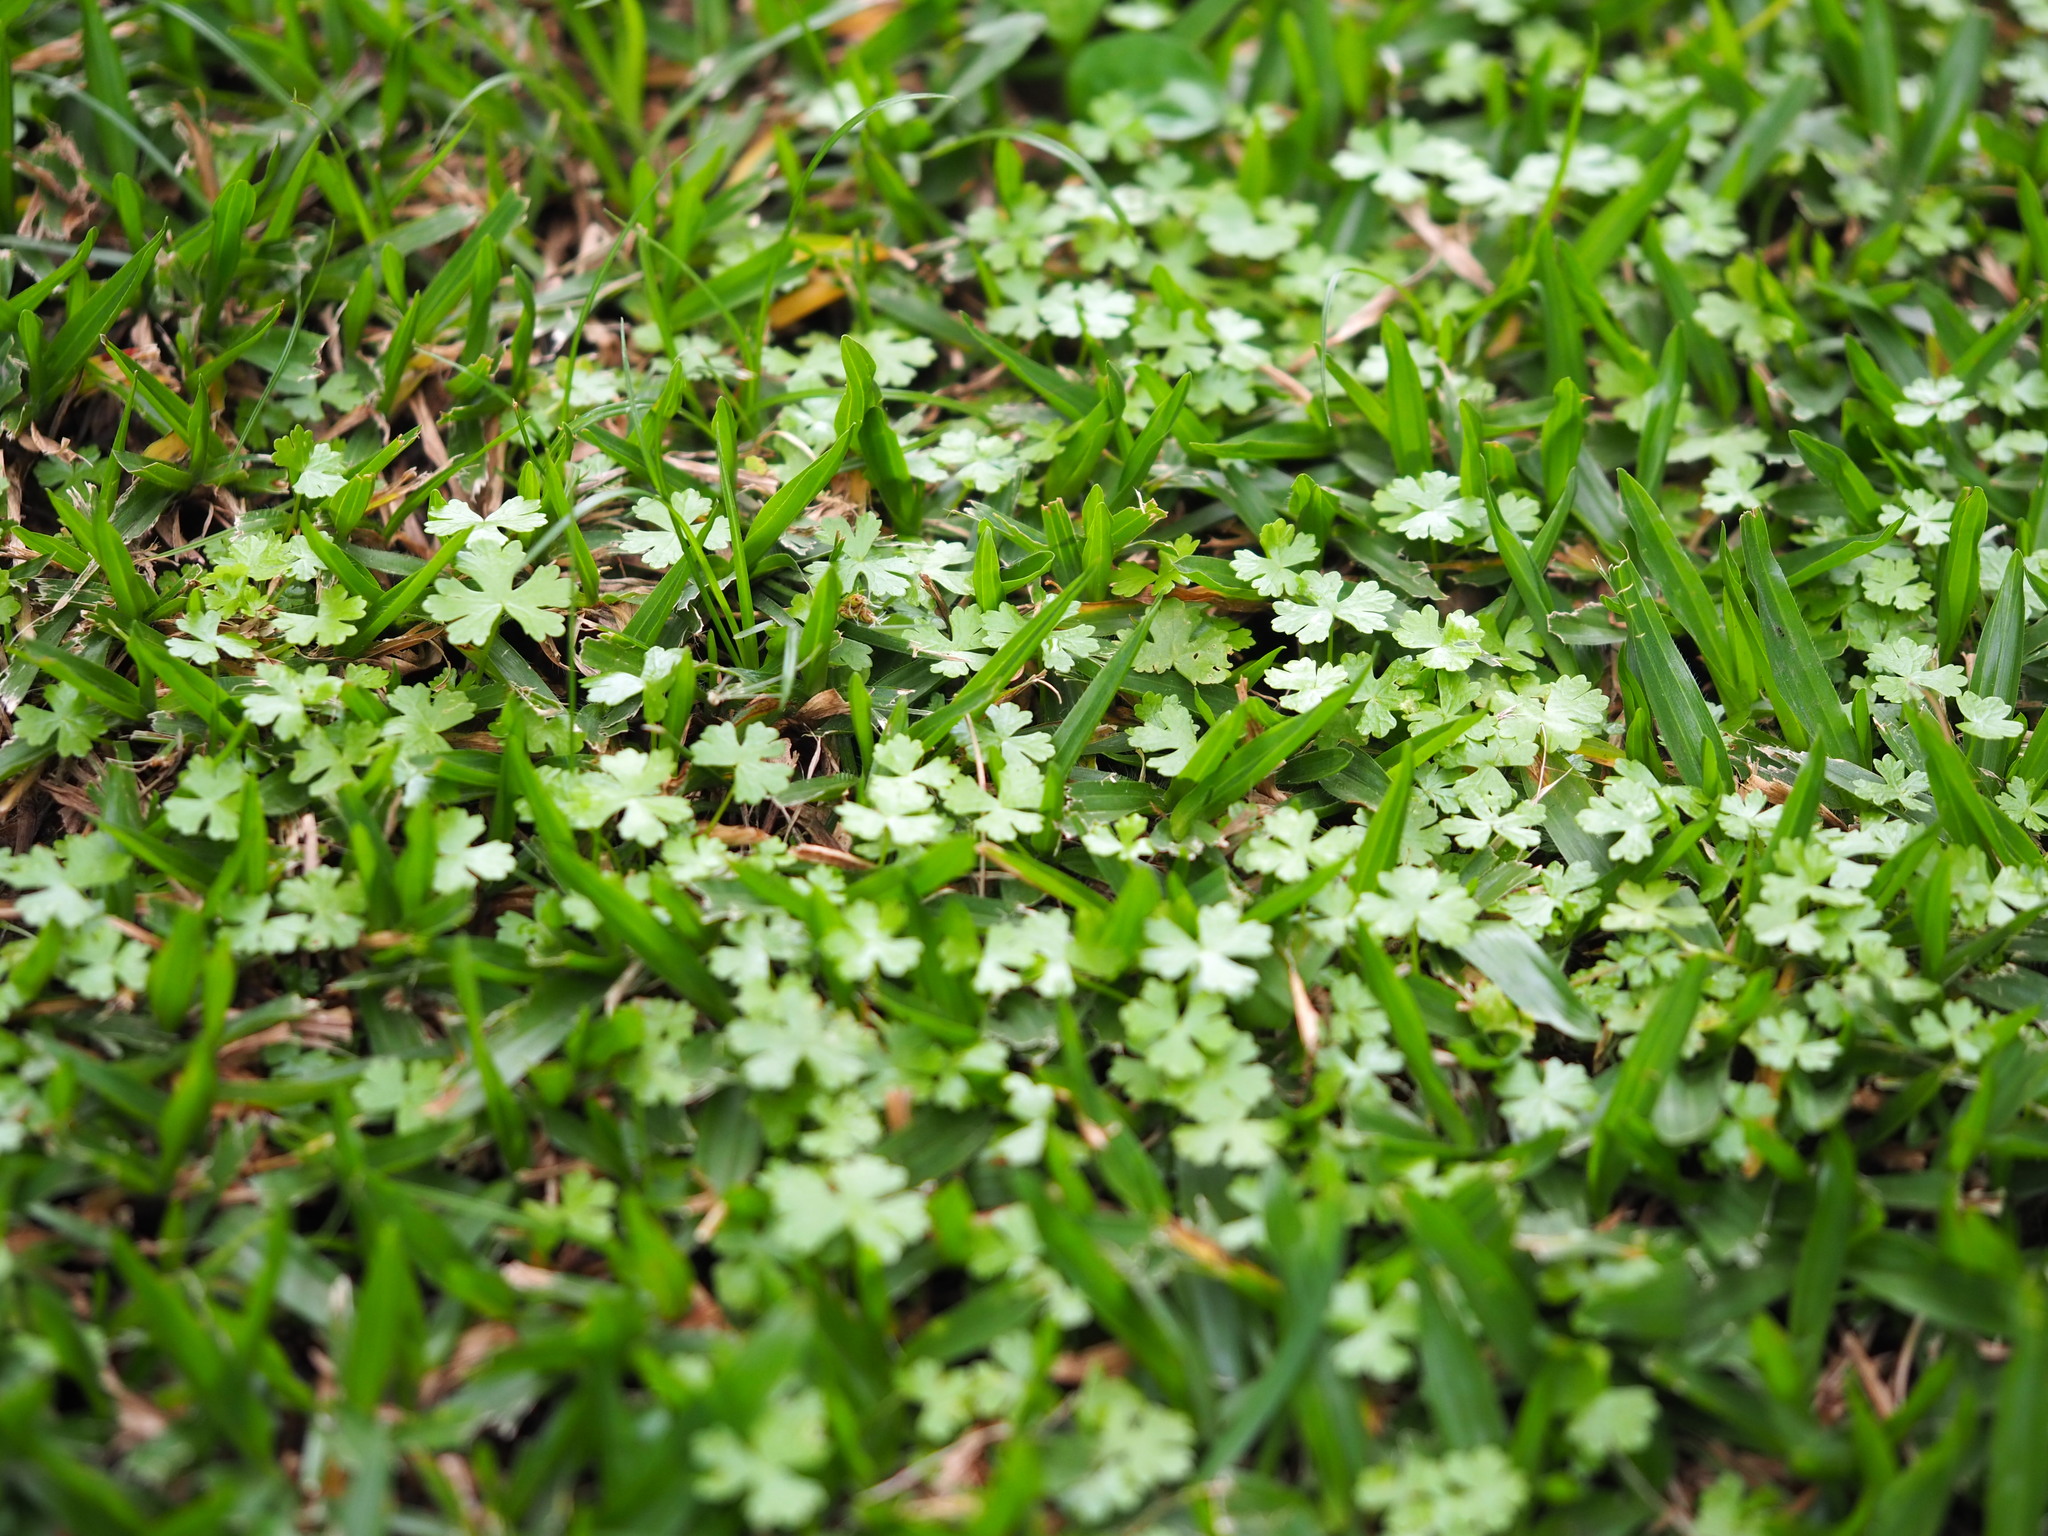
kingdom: Plantae
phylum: Tracheophyta
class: Magnoliopsida
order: Apiales
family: Araliaceae
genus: Hydrocotyle
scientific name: Hydrocotyle batrachium
